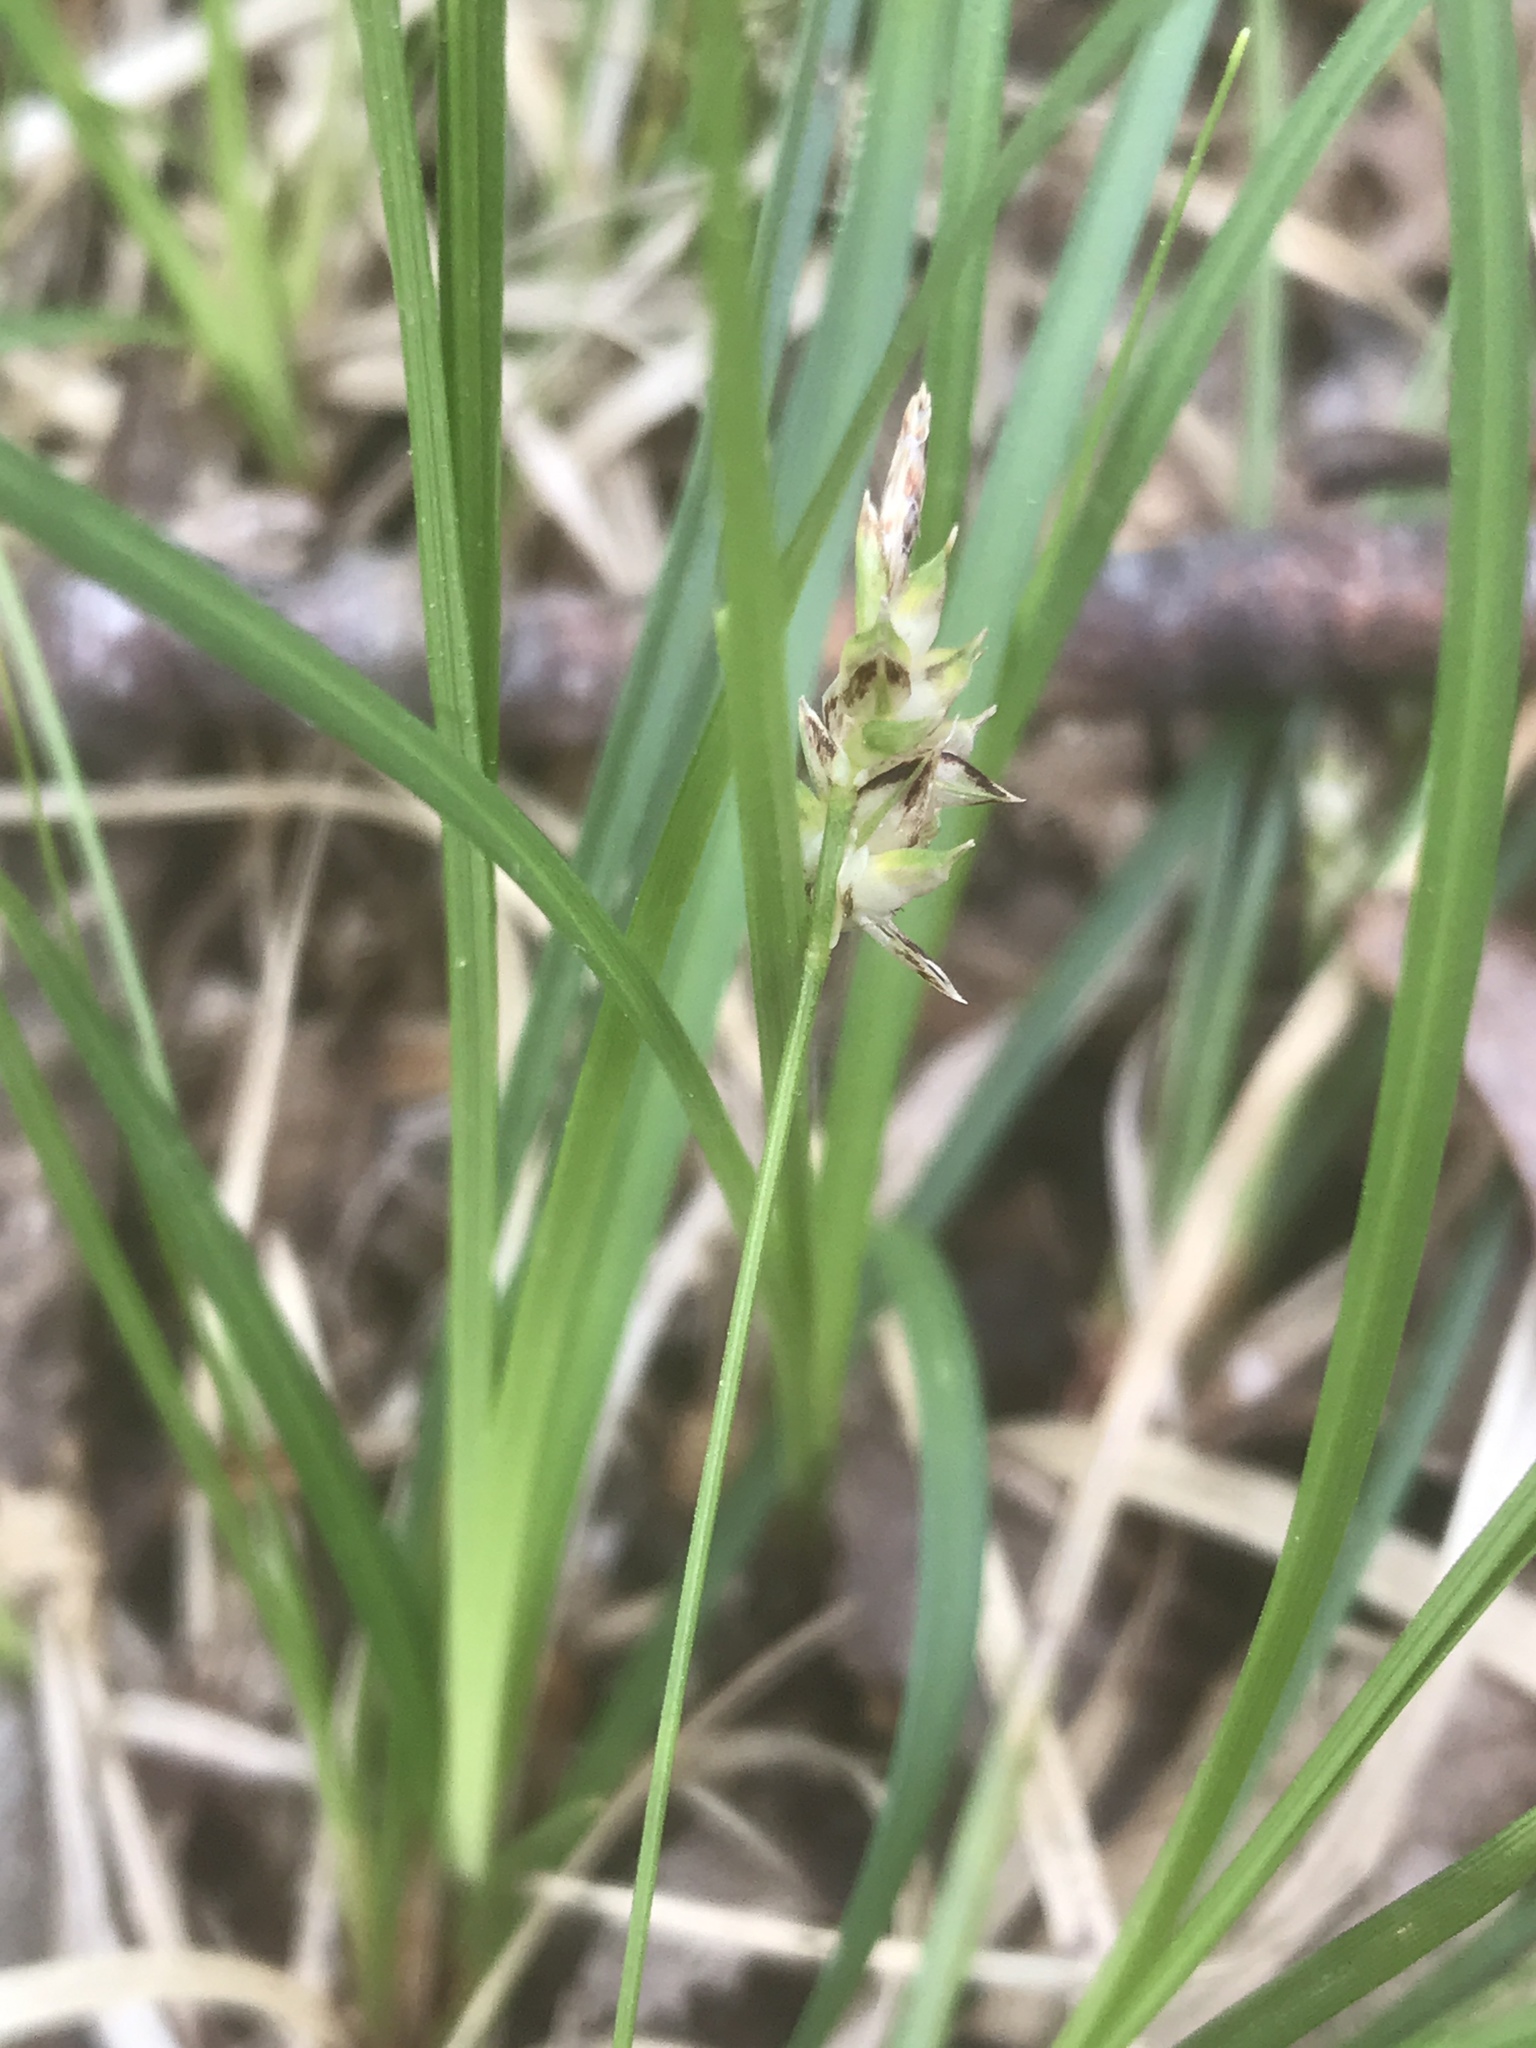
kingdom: Plantae
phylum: Tracheophyta
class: Liliopsida
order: Poales
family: Cyperaceae
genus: Carex
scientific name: Carex nigromarginata
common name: Black-edged sedge
